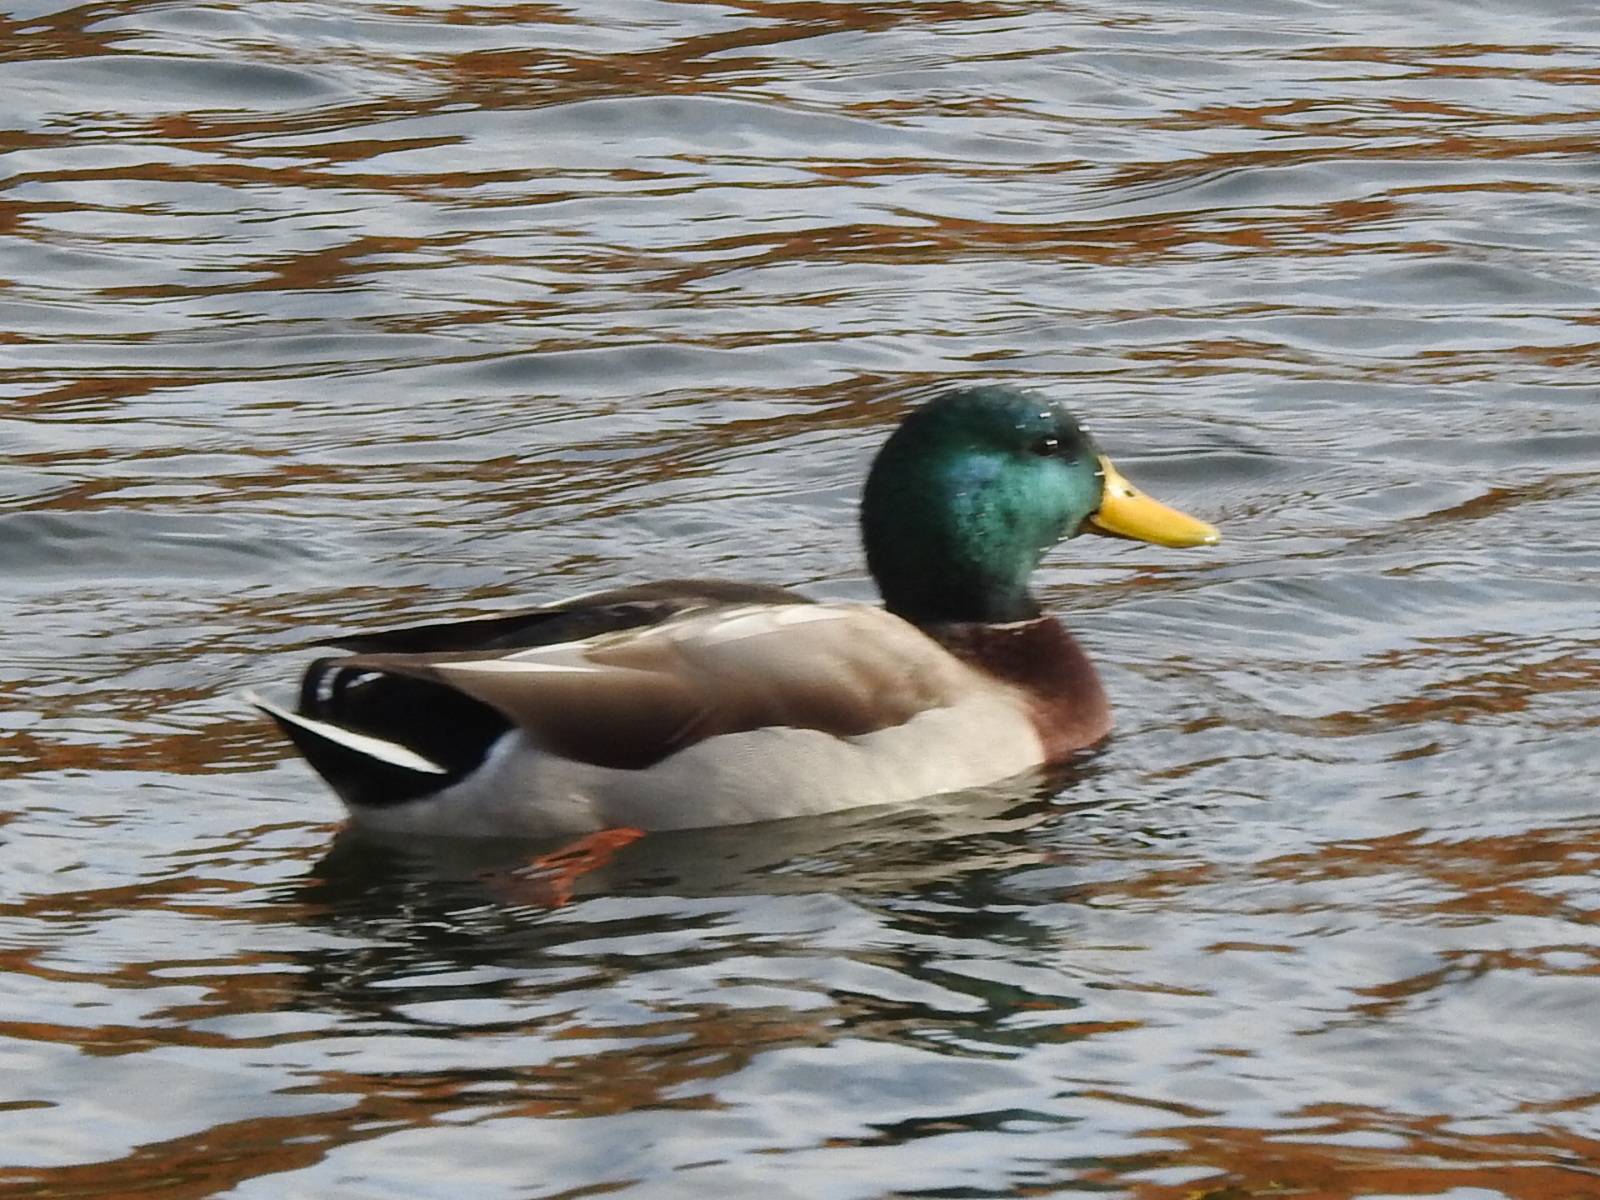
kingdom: Animalia
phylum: Chordata
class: Aves
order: Anseriformes
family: Anatidae
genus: Anas
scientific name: Anas platyrhynchos
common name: Mallard
